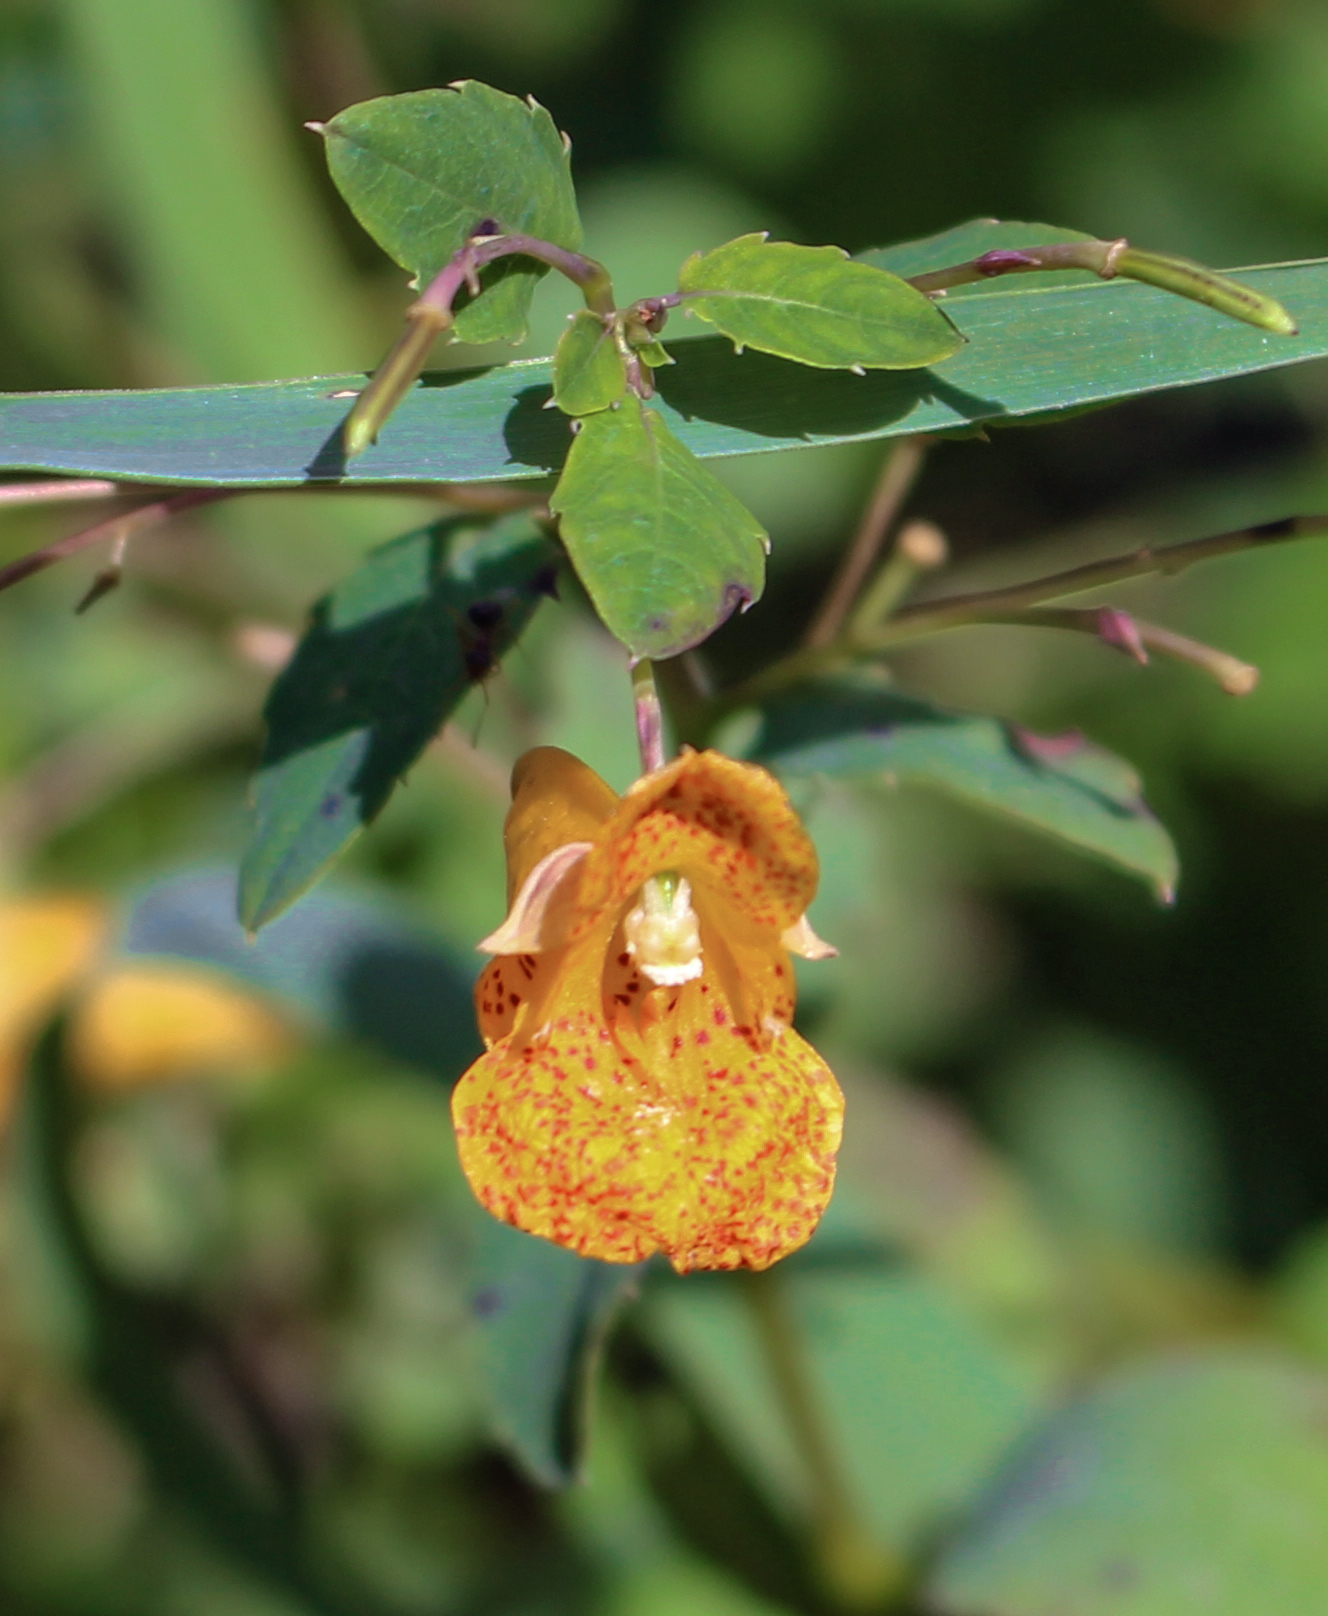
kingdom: Plantae
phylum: Tracheophyta
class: Magnoliopsida
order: Ericales
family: Balsaminaceae
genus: Impatiens
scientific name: Impatiens capensis
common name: Orange balsam
